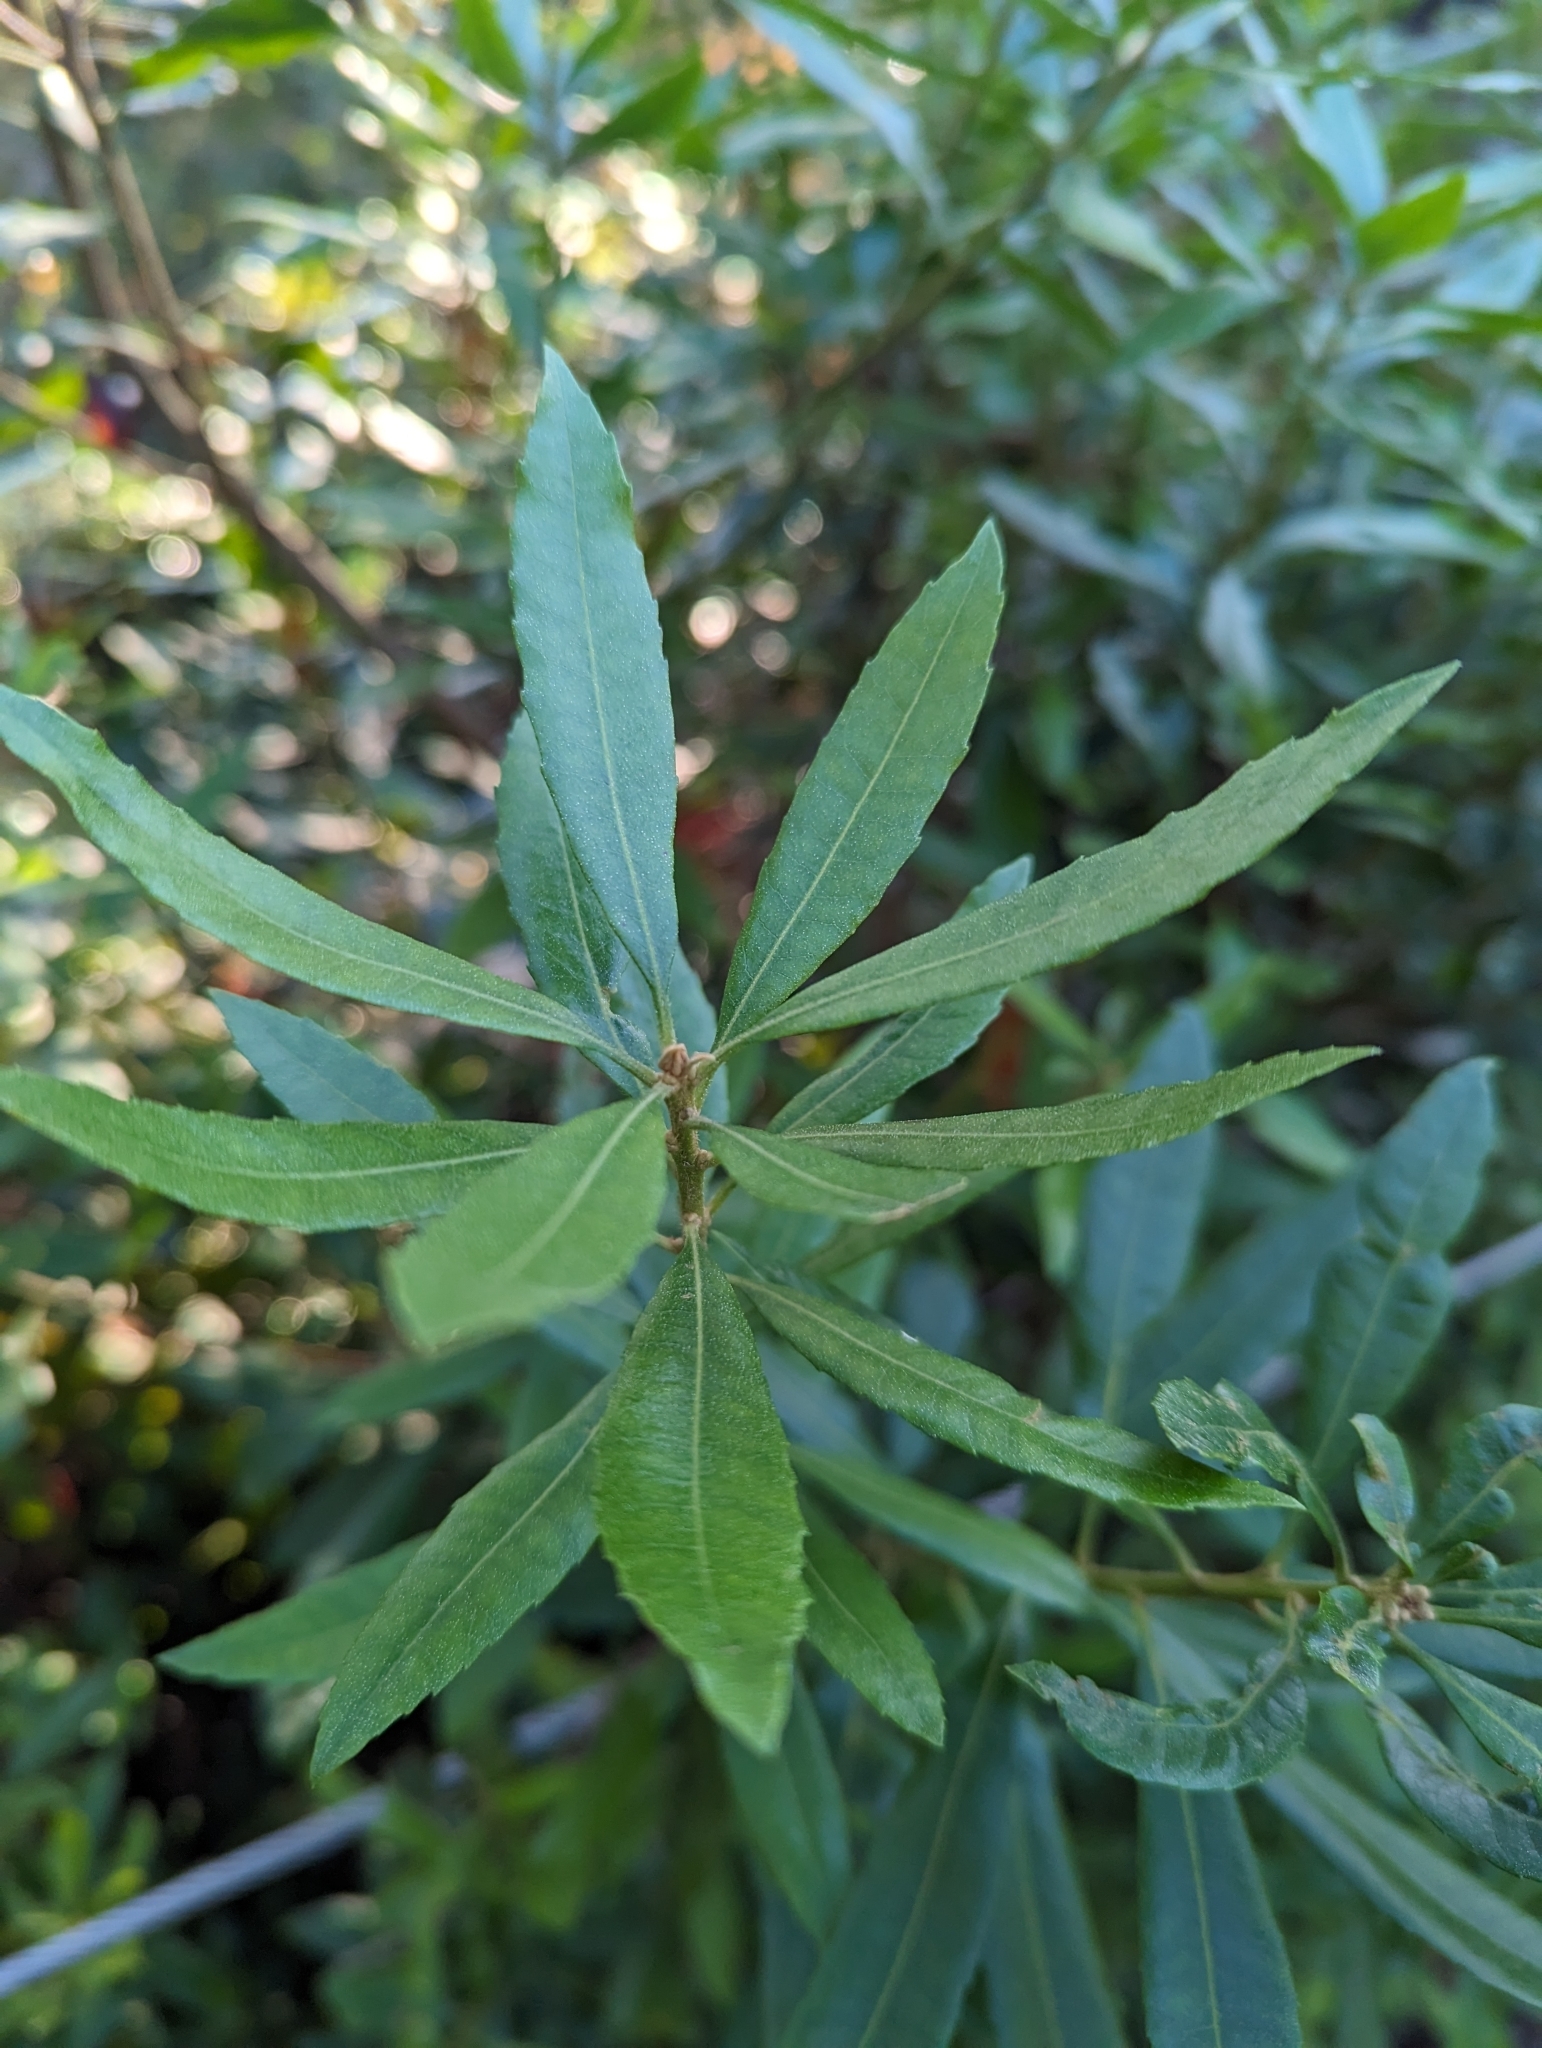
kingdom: Plantae
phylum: Tracheophyta
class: Magnoliopsida
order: Fagales
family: Myricaceae
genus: Morella
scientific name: Morella californica
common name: California wax-myrtle
